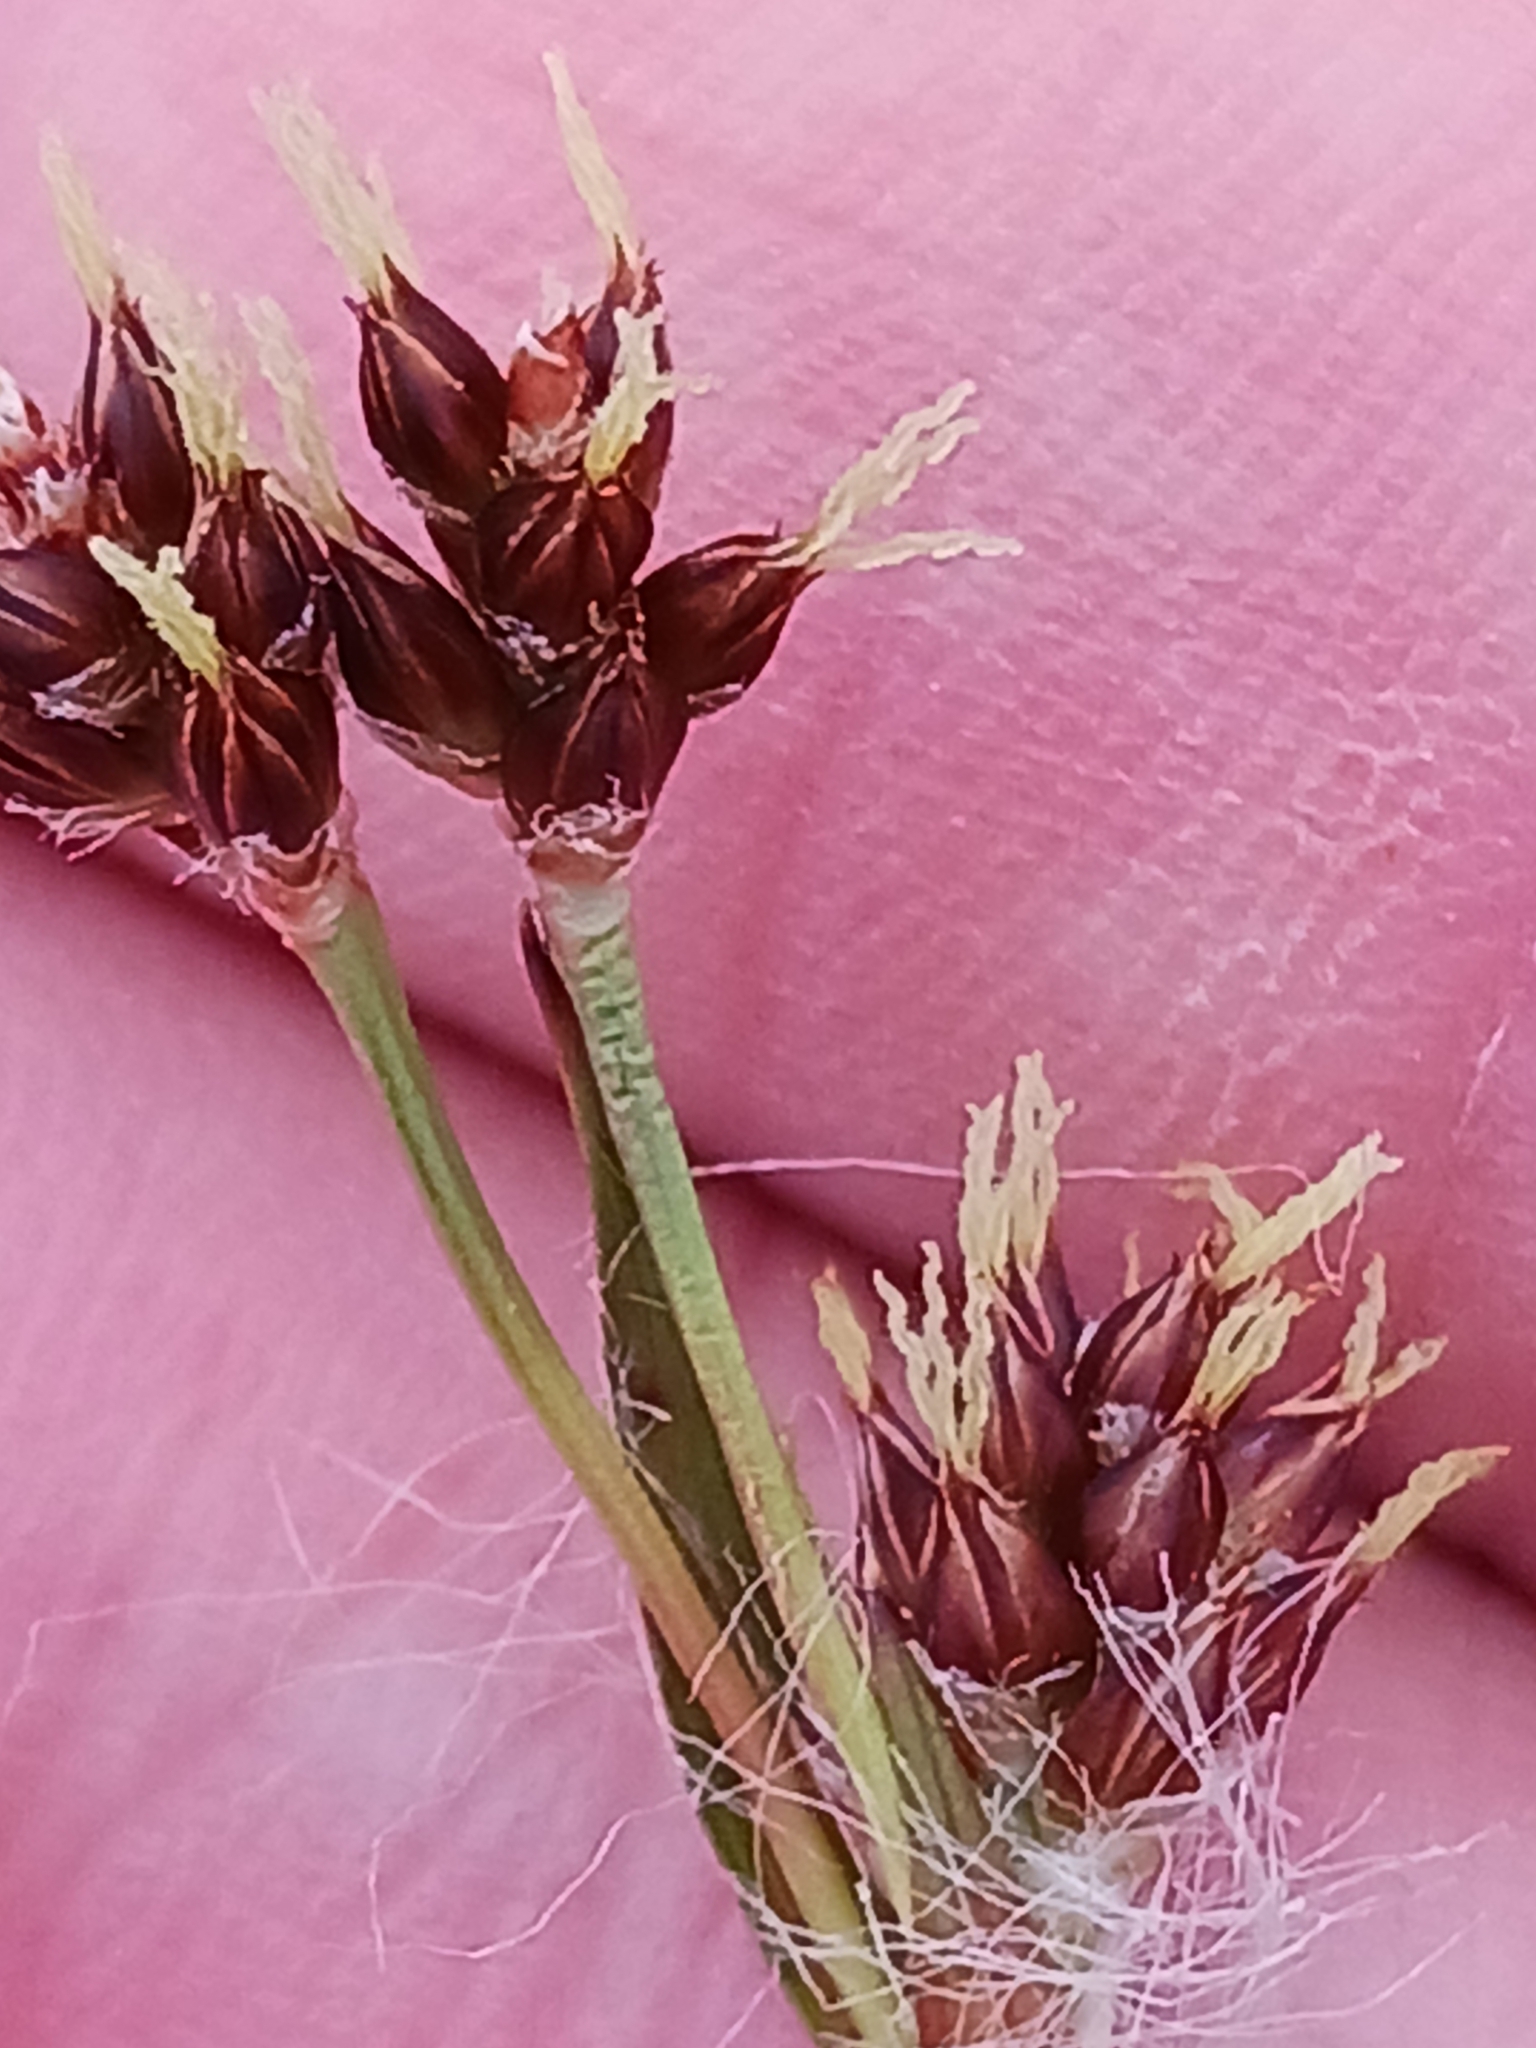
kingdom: Plantae
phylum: Tracheophyta
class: Liliopsida
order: Poales
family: Juncaceae
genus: Luzula
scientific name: Luzula campestris
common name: Field wood-rush
